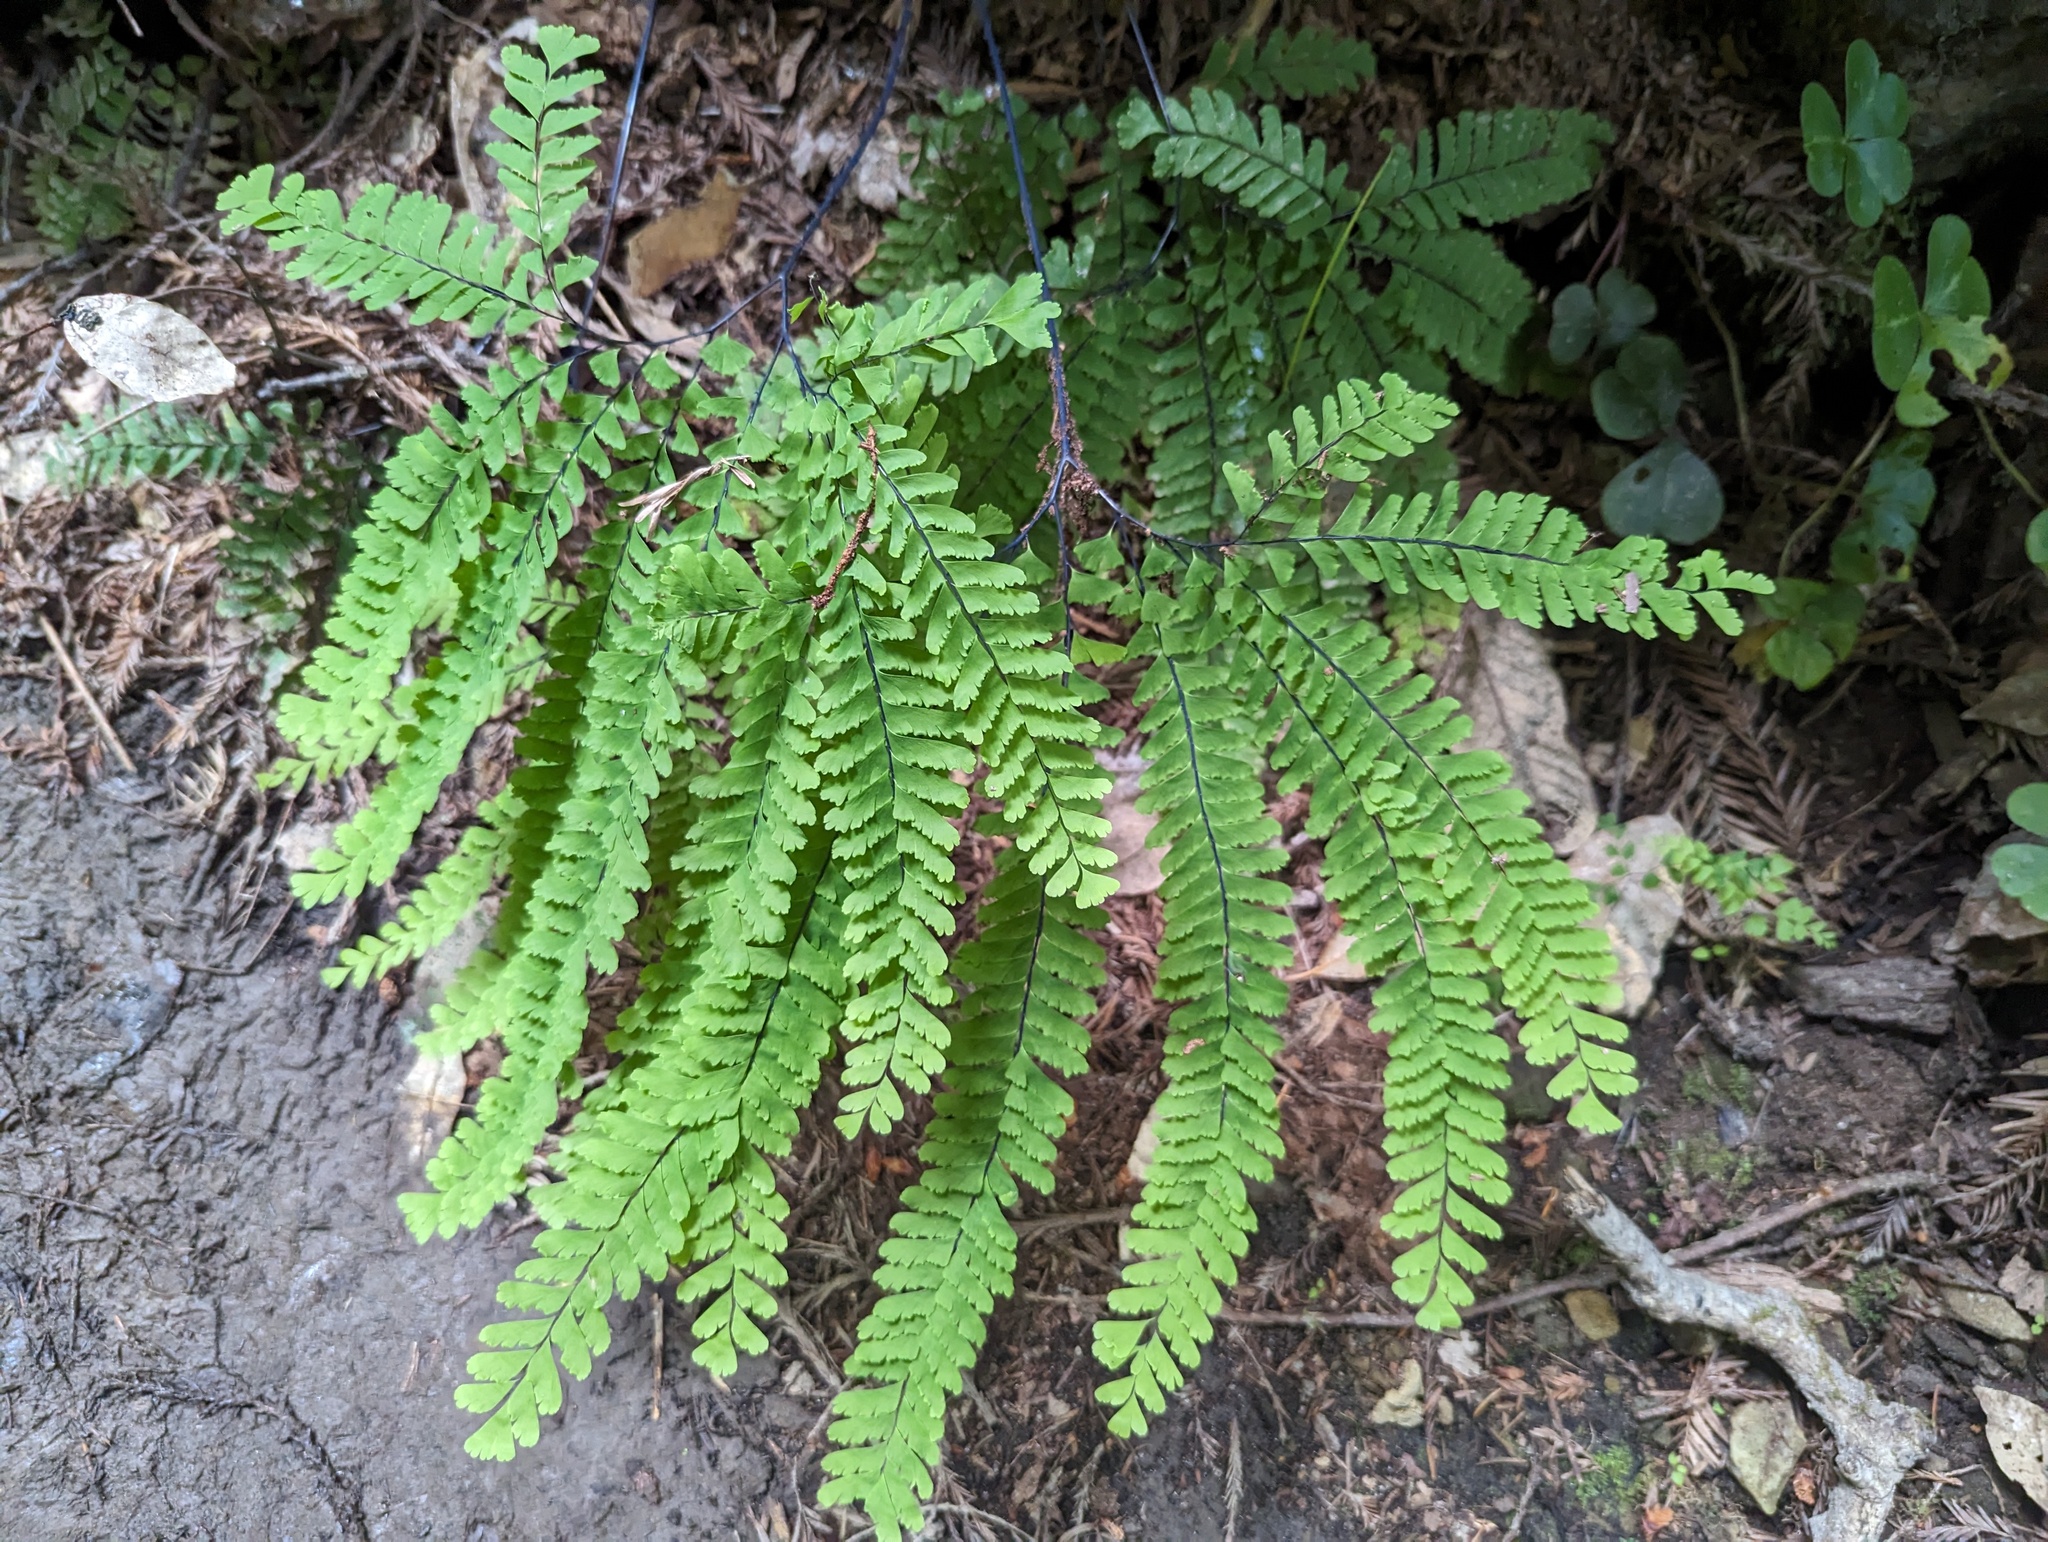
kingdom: Plantae
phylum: Tracheophyta
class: Polypodiopsida
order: Polypodiales
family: Pteridaceae
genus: Adiantum
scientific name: Adiantum aleuticum
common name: Aleutian maidenhair fern
